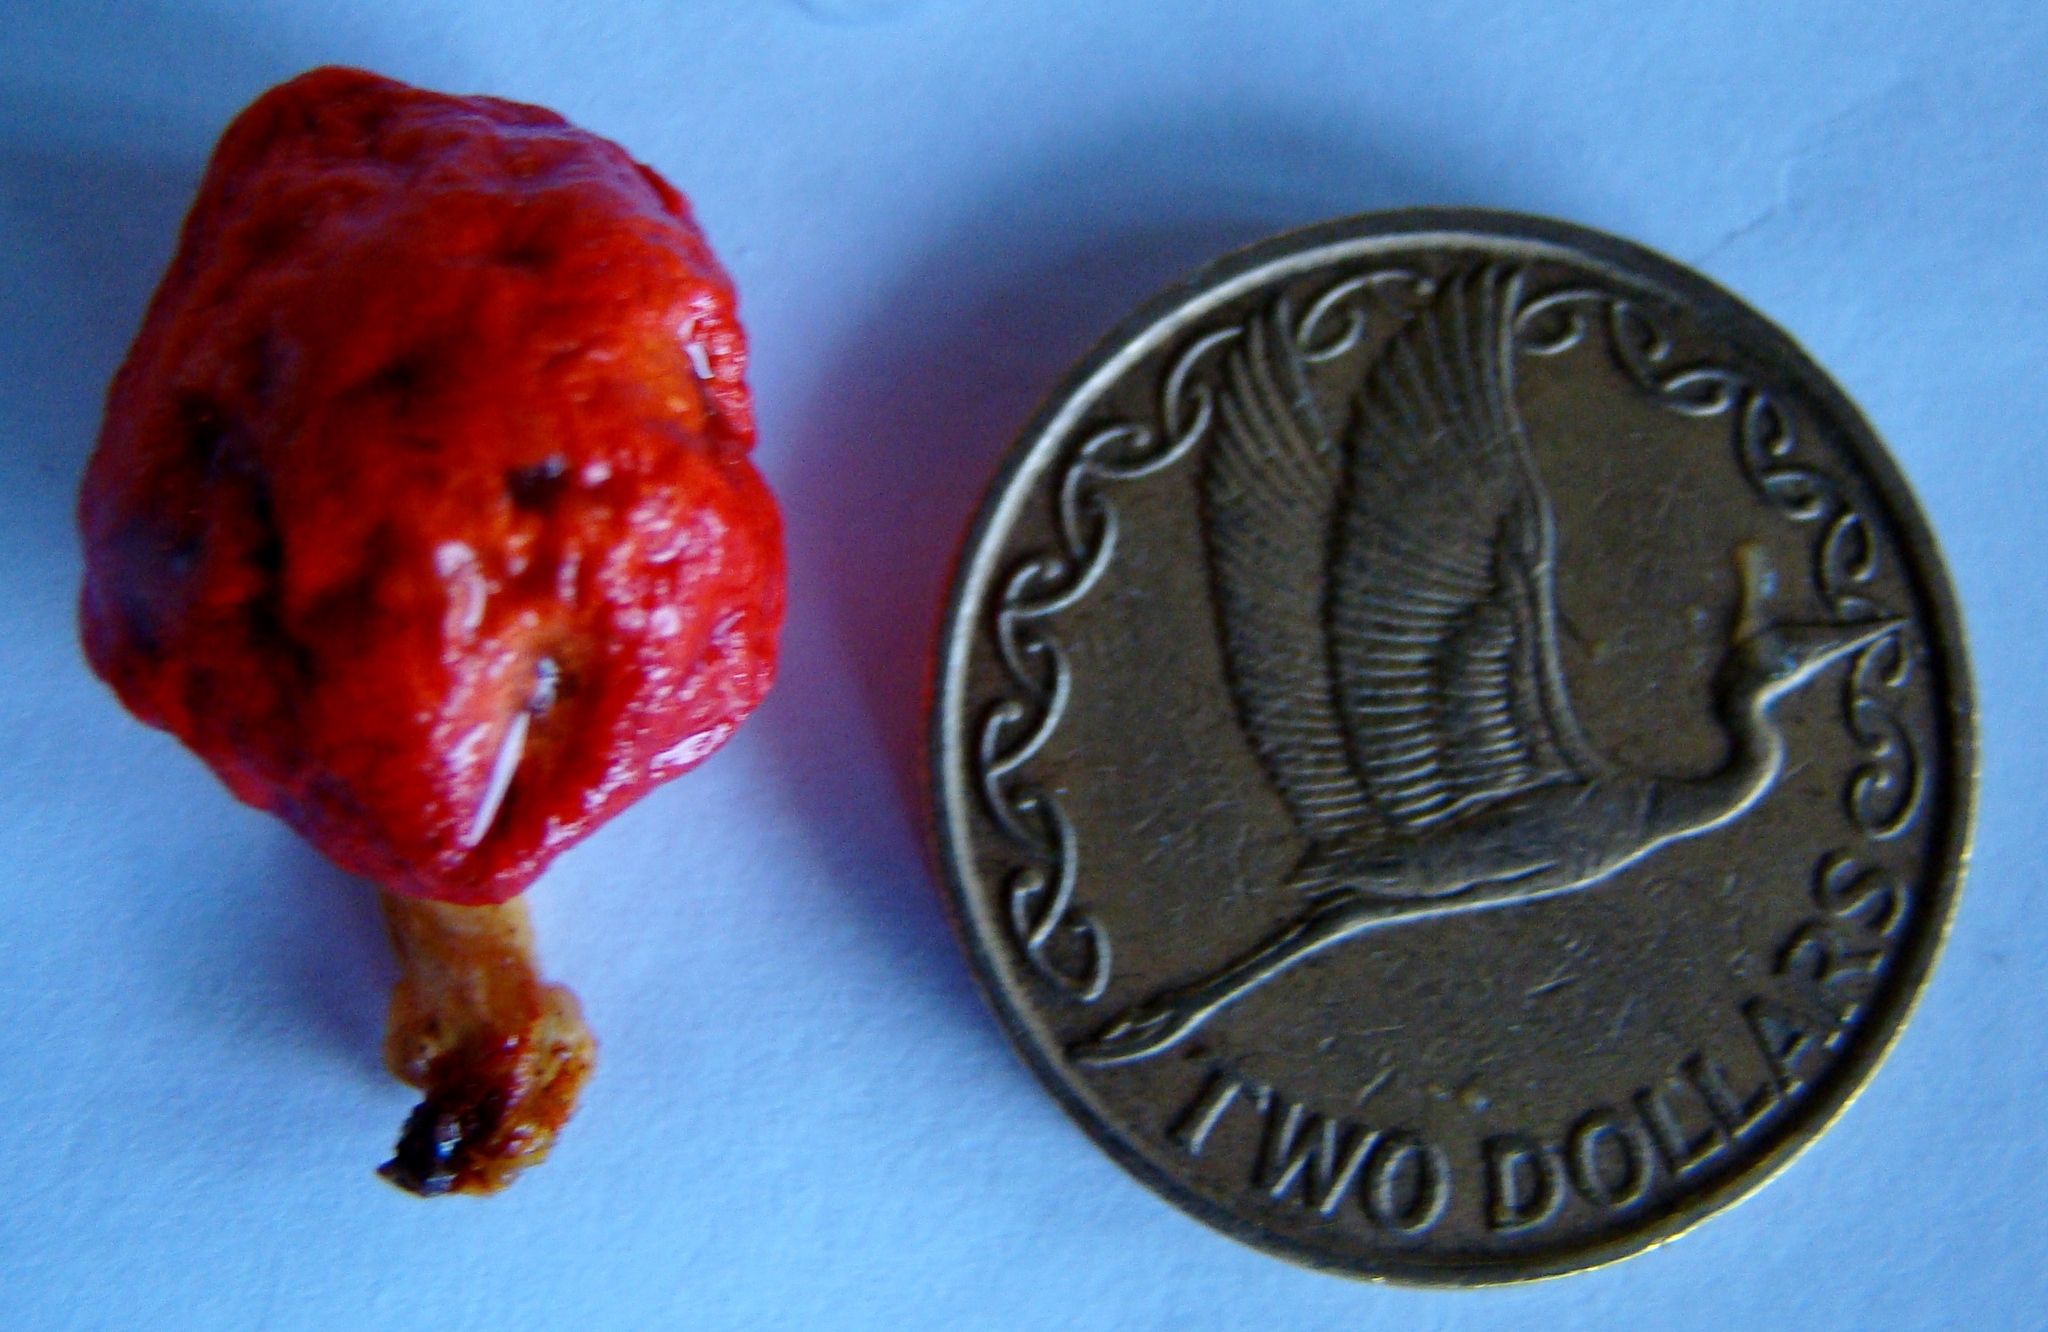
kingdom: Fungi
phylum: Basidiomycota
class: Agaricomycetes
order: Agaricales
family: Strophariaceae
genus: Leratiomyces
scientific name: Leratiomyces erythrocephalus
